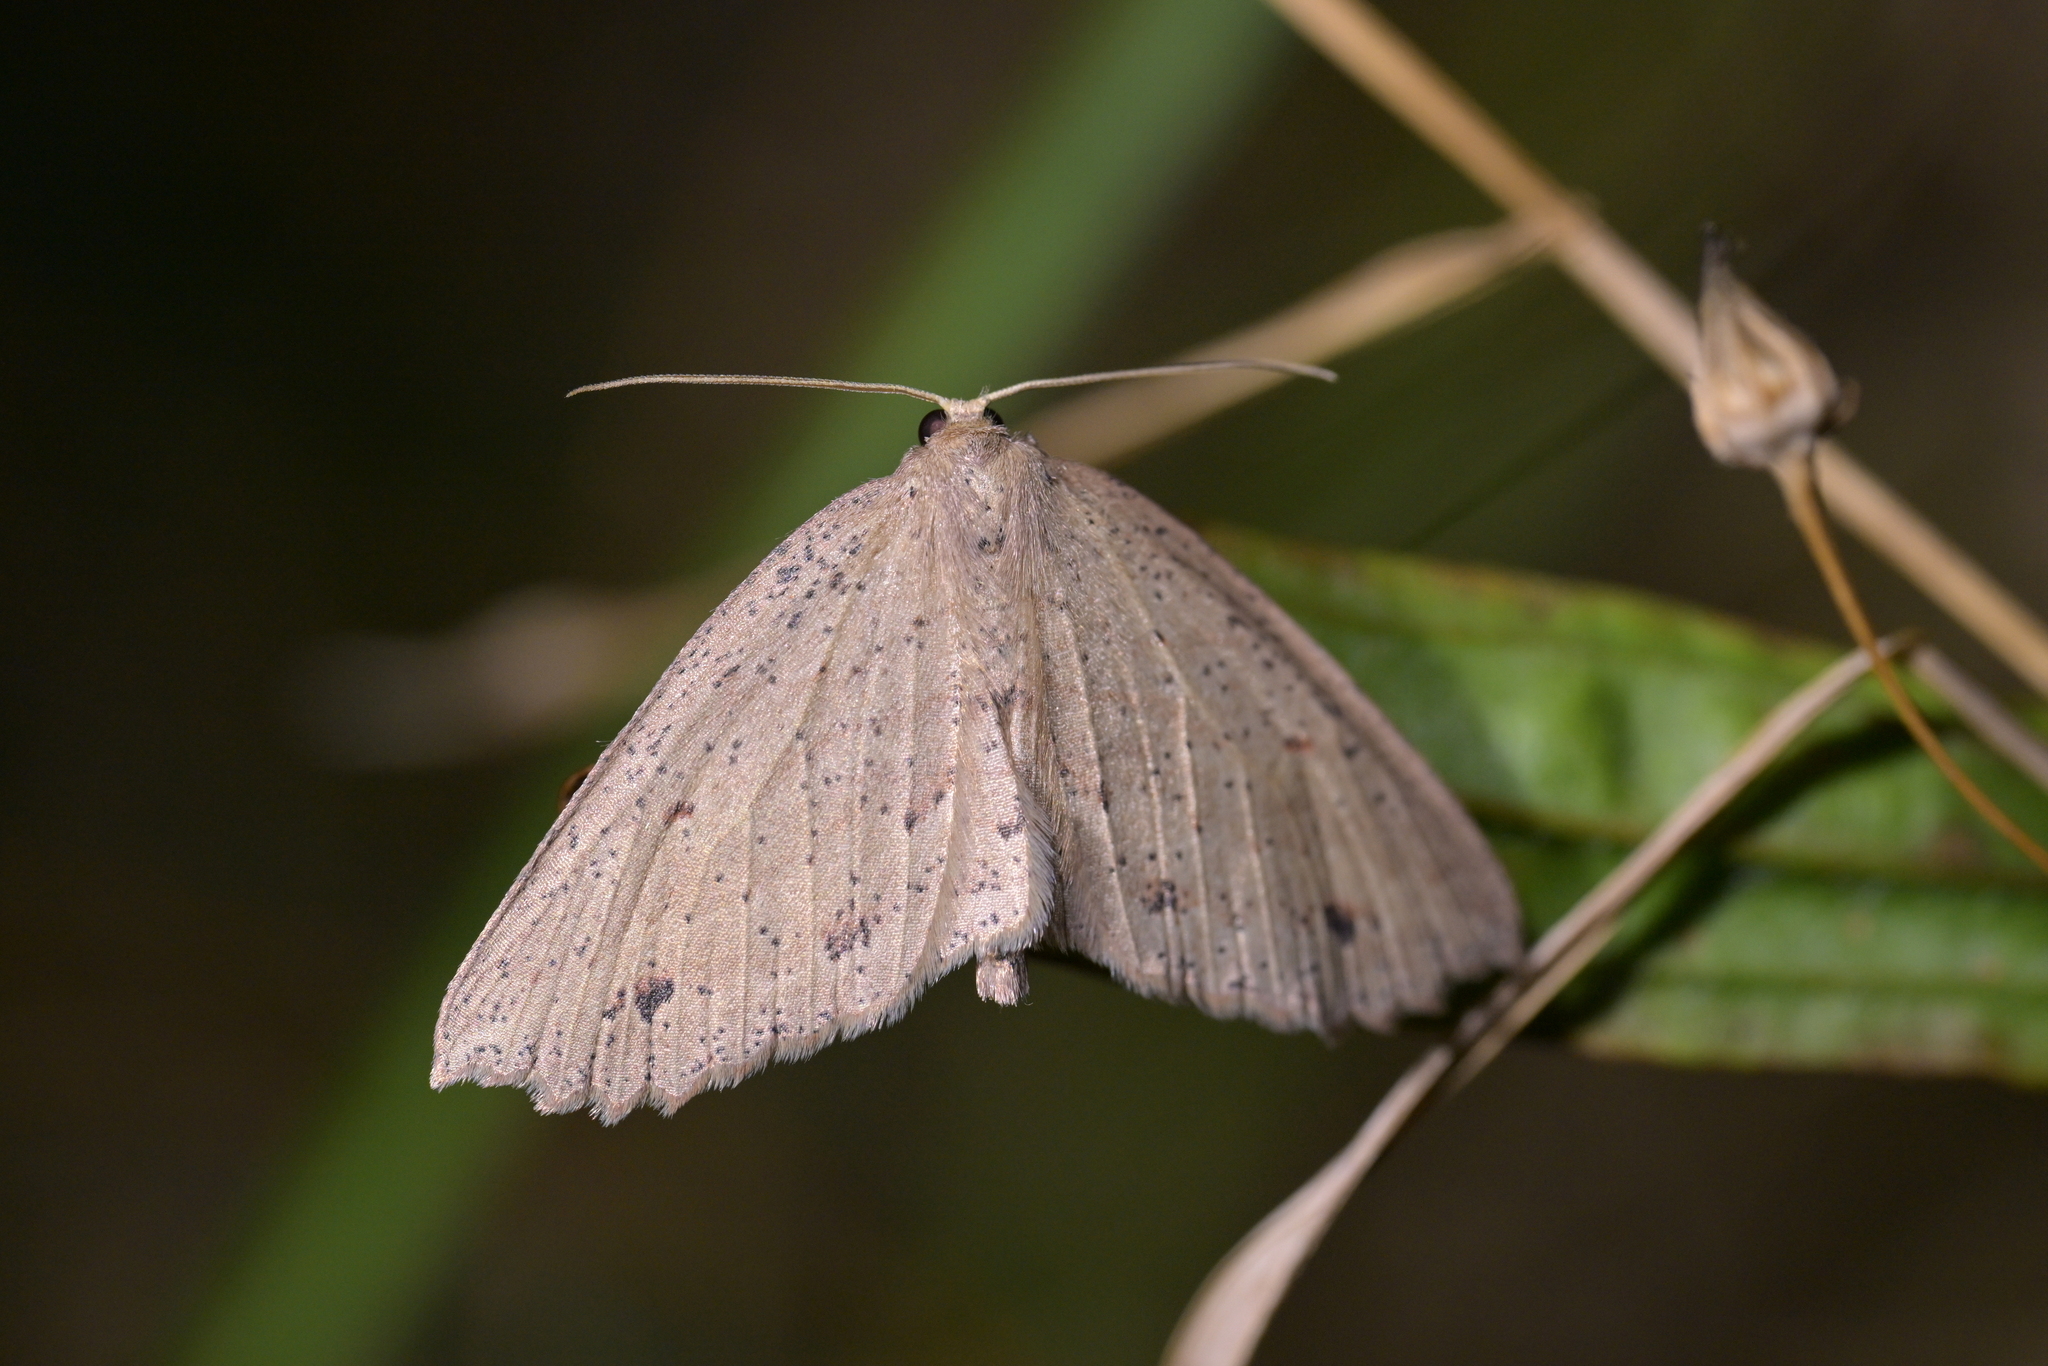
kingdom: Animalia
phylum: Arthropoda
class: Insecta
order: Lepidoptera
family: Geometridae
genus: Xyridacma
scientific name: Xyridacma veronicae
